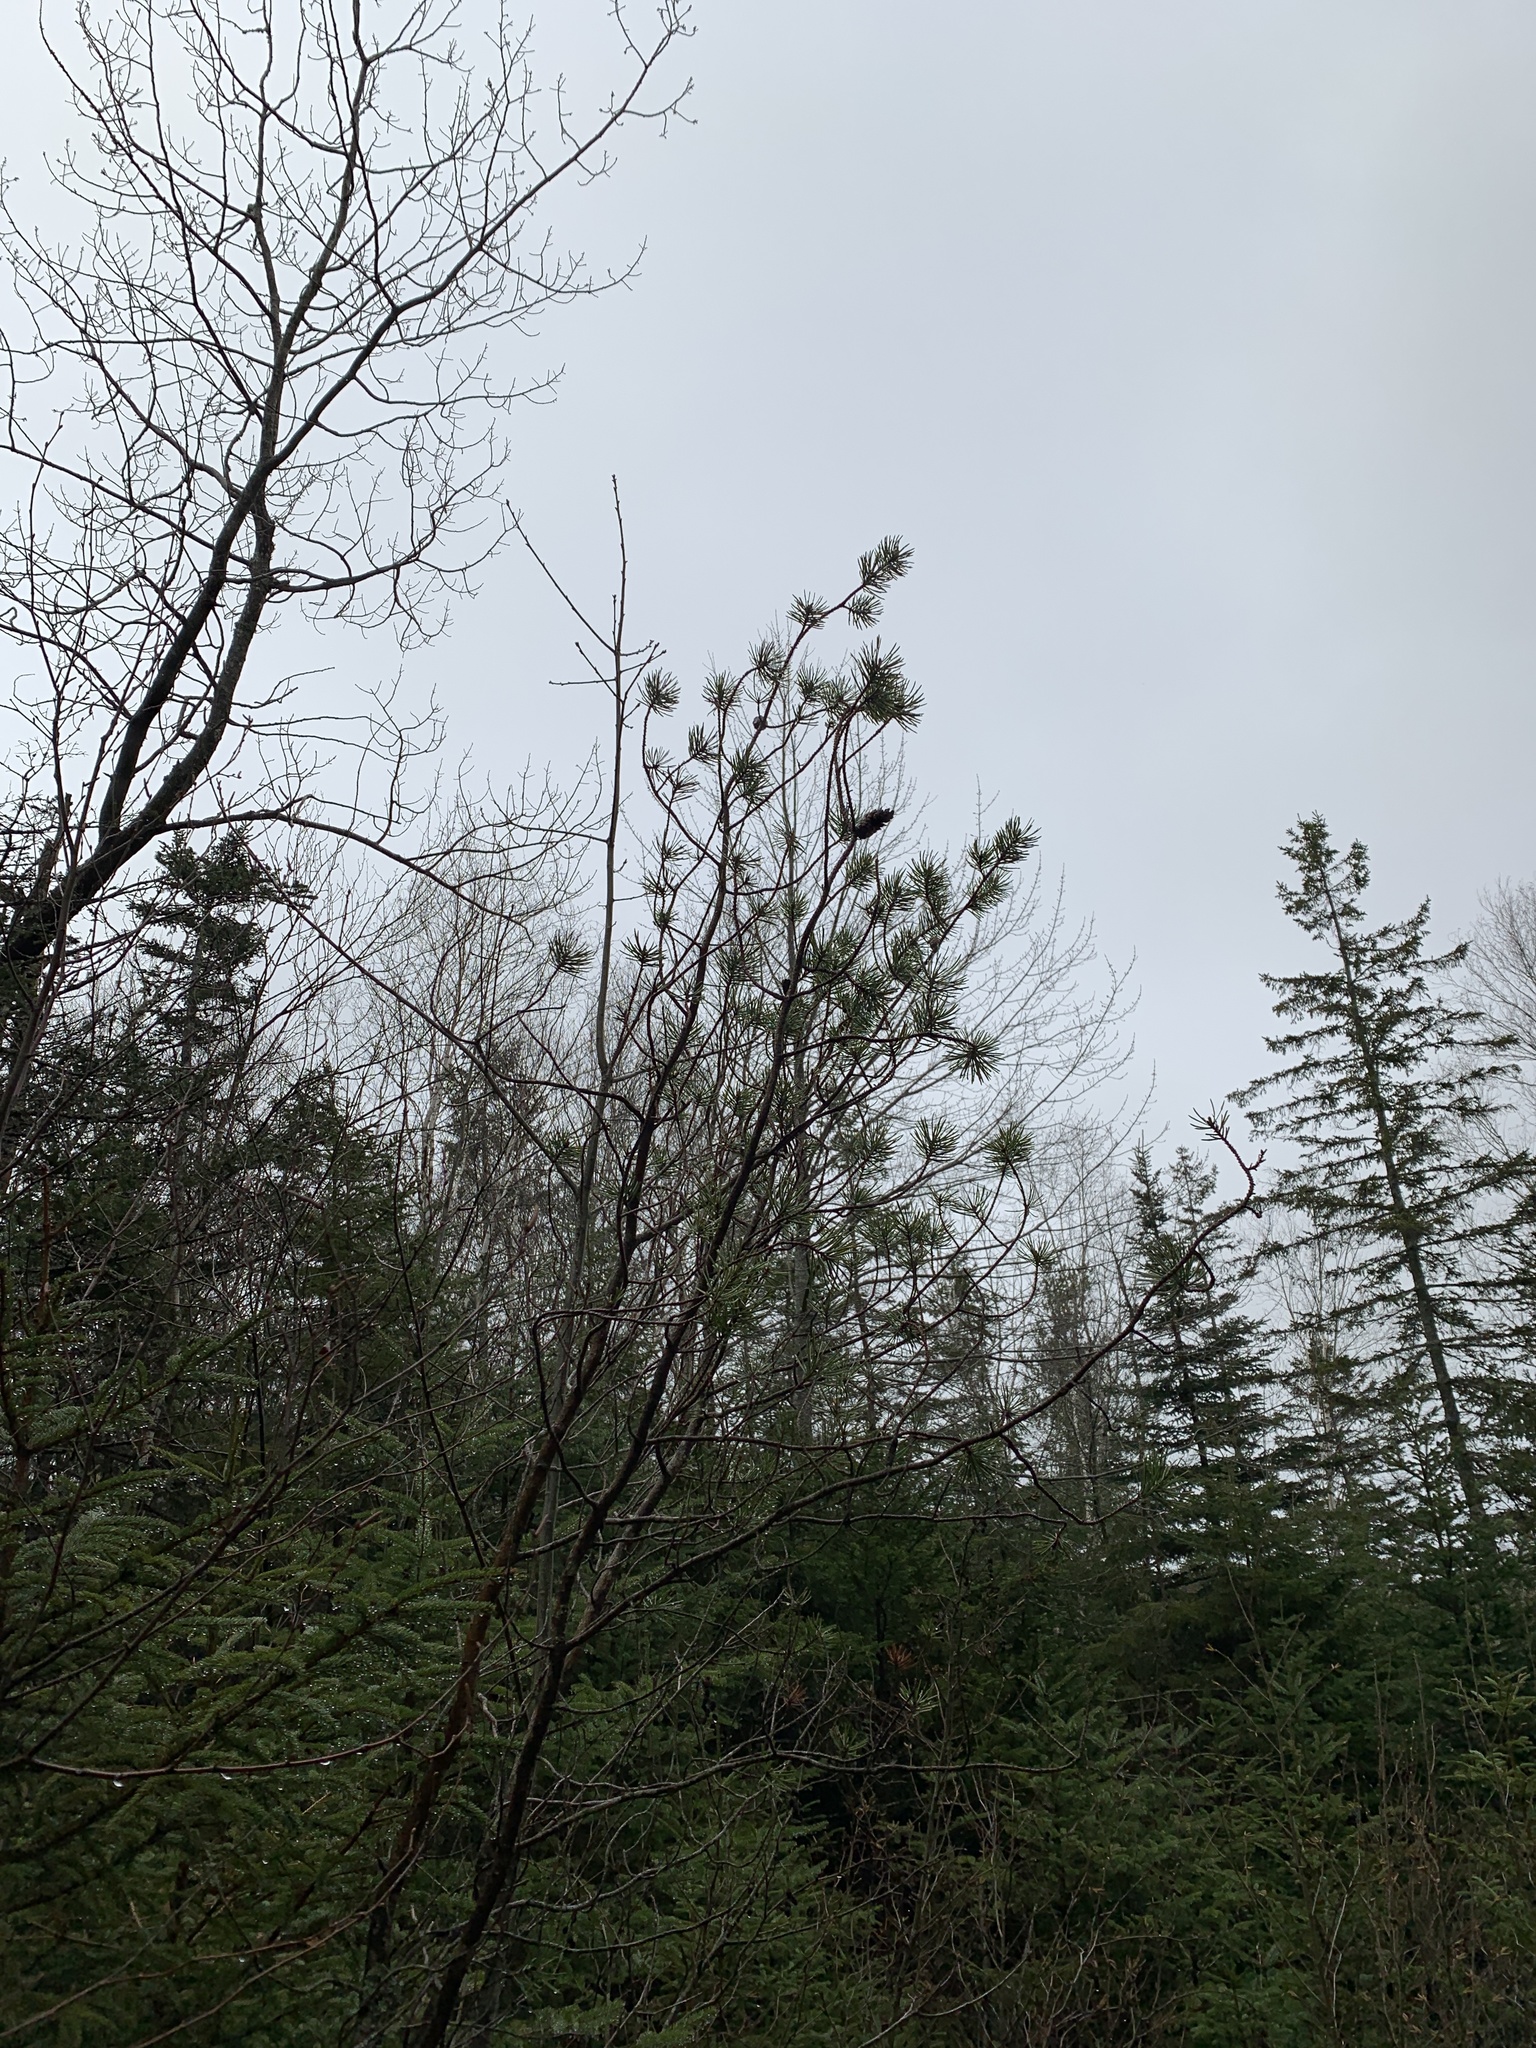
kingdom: Plantae
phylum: Tracheophyta
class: Pinopsida
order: Pinales
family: Pinaceae
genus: Pinus
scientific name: Pinus banksiana
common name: Jack pine
